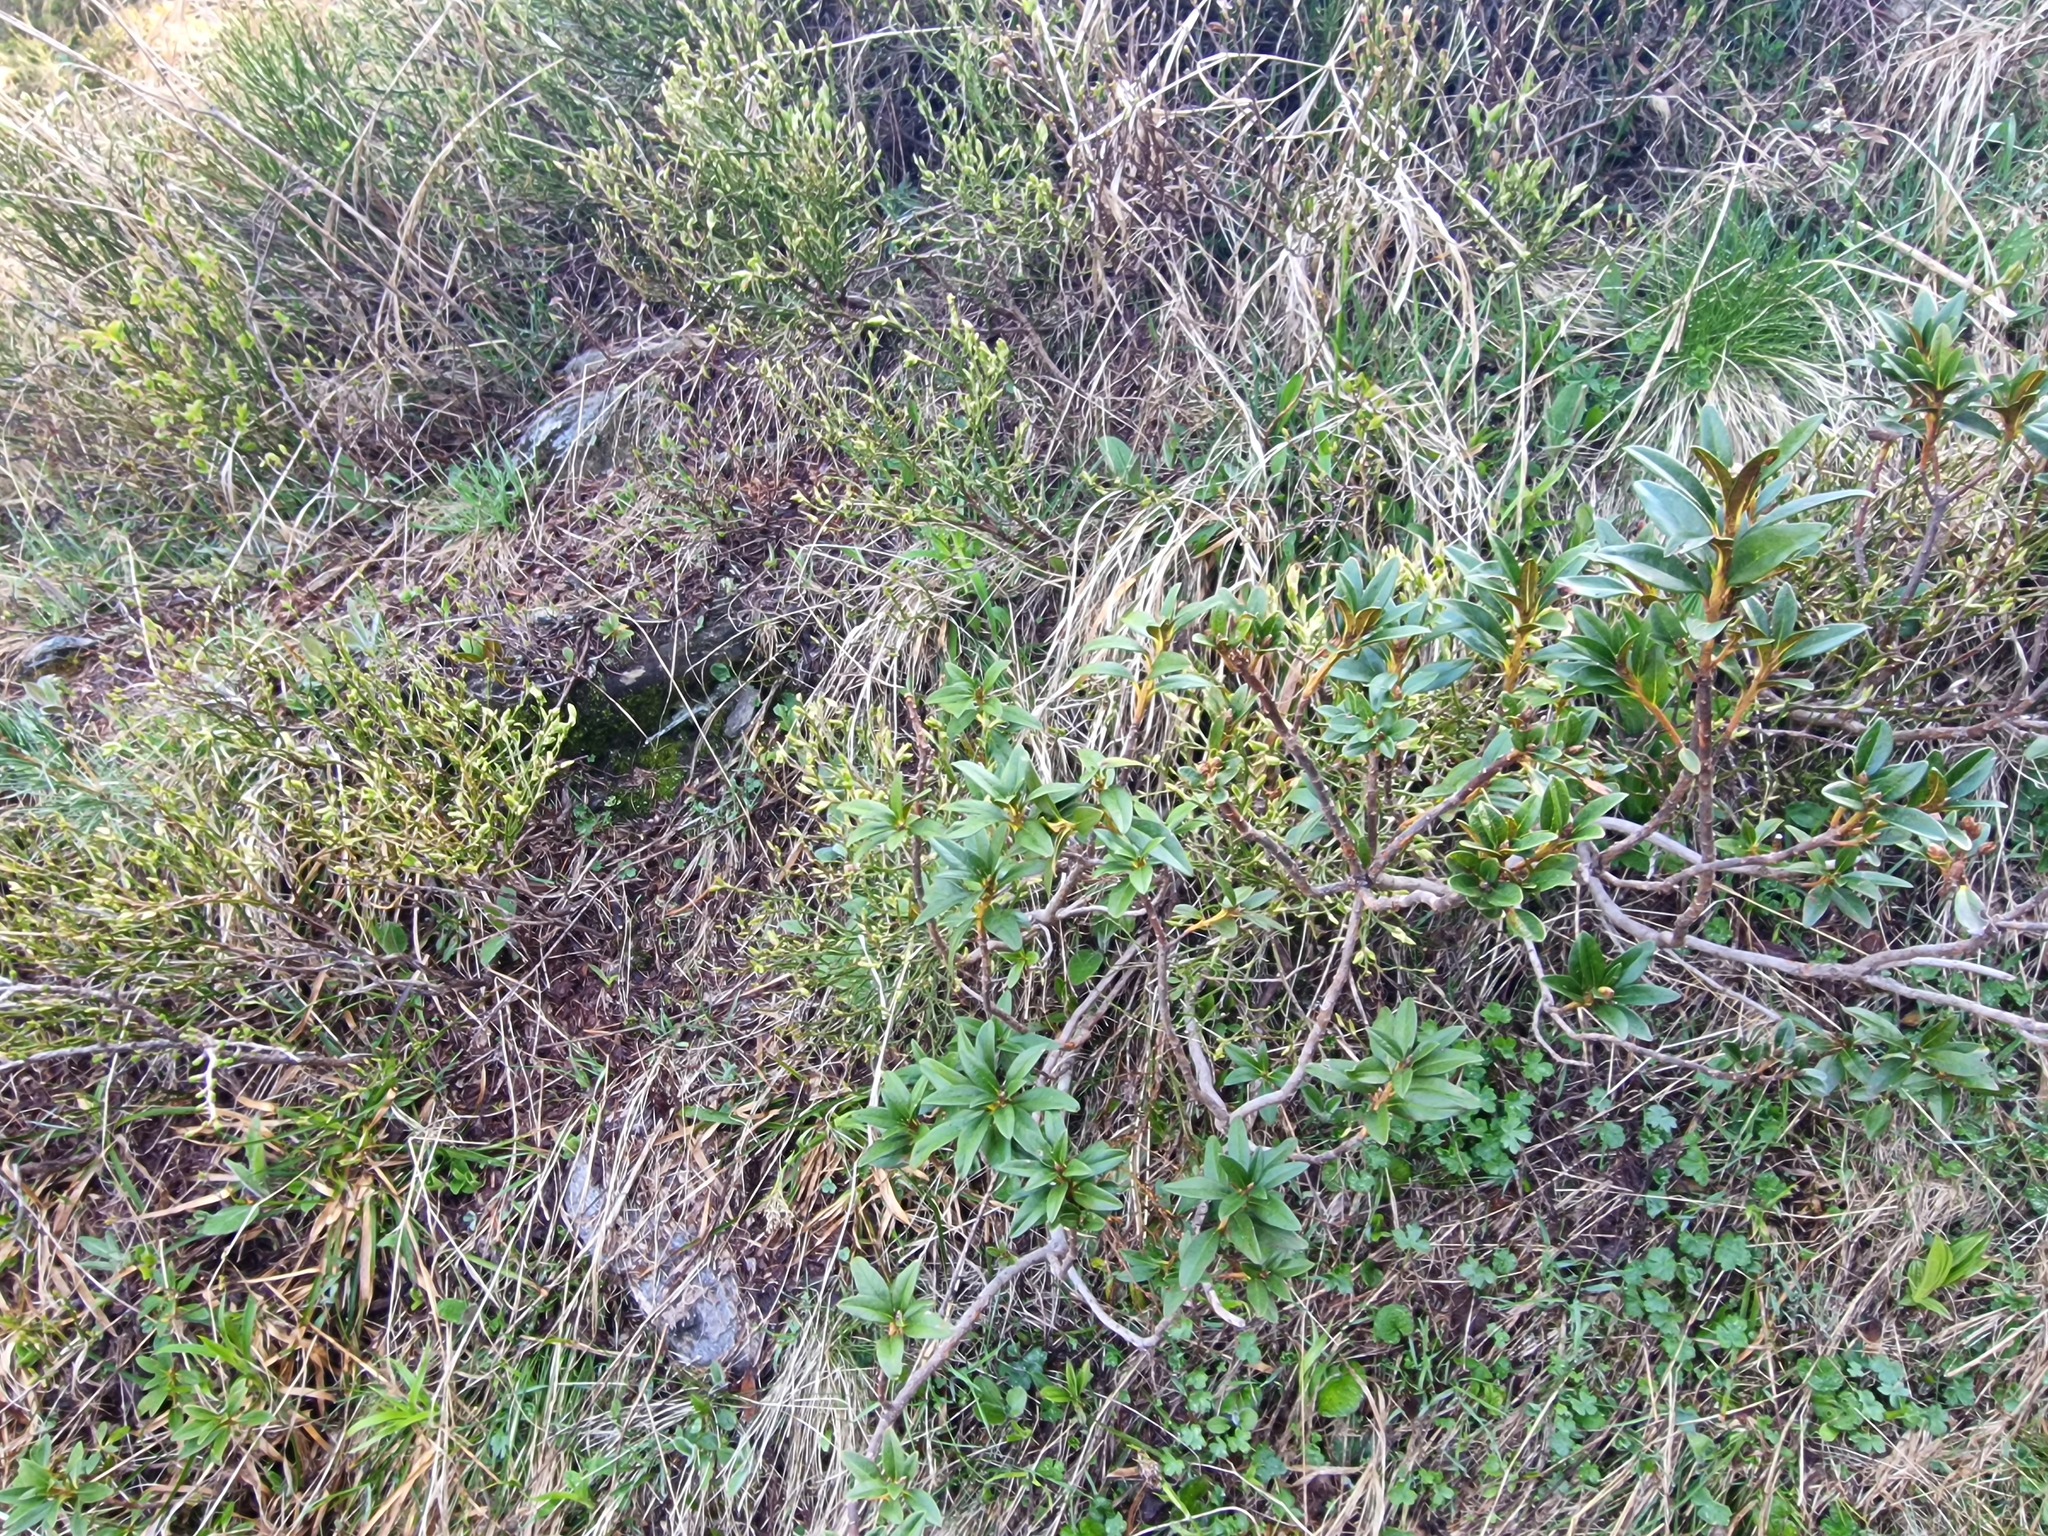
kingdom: Plantae
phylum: Tracheophyta
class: Magnoliopsida
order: Ericales
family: Ericaceae
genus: Rhododendron
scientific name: Rhododendron ferrugineum
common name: Alpenrose
